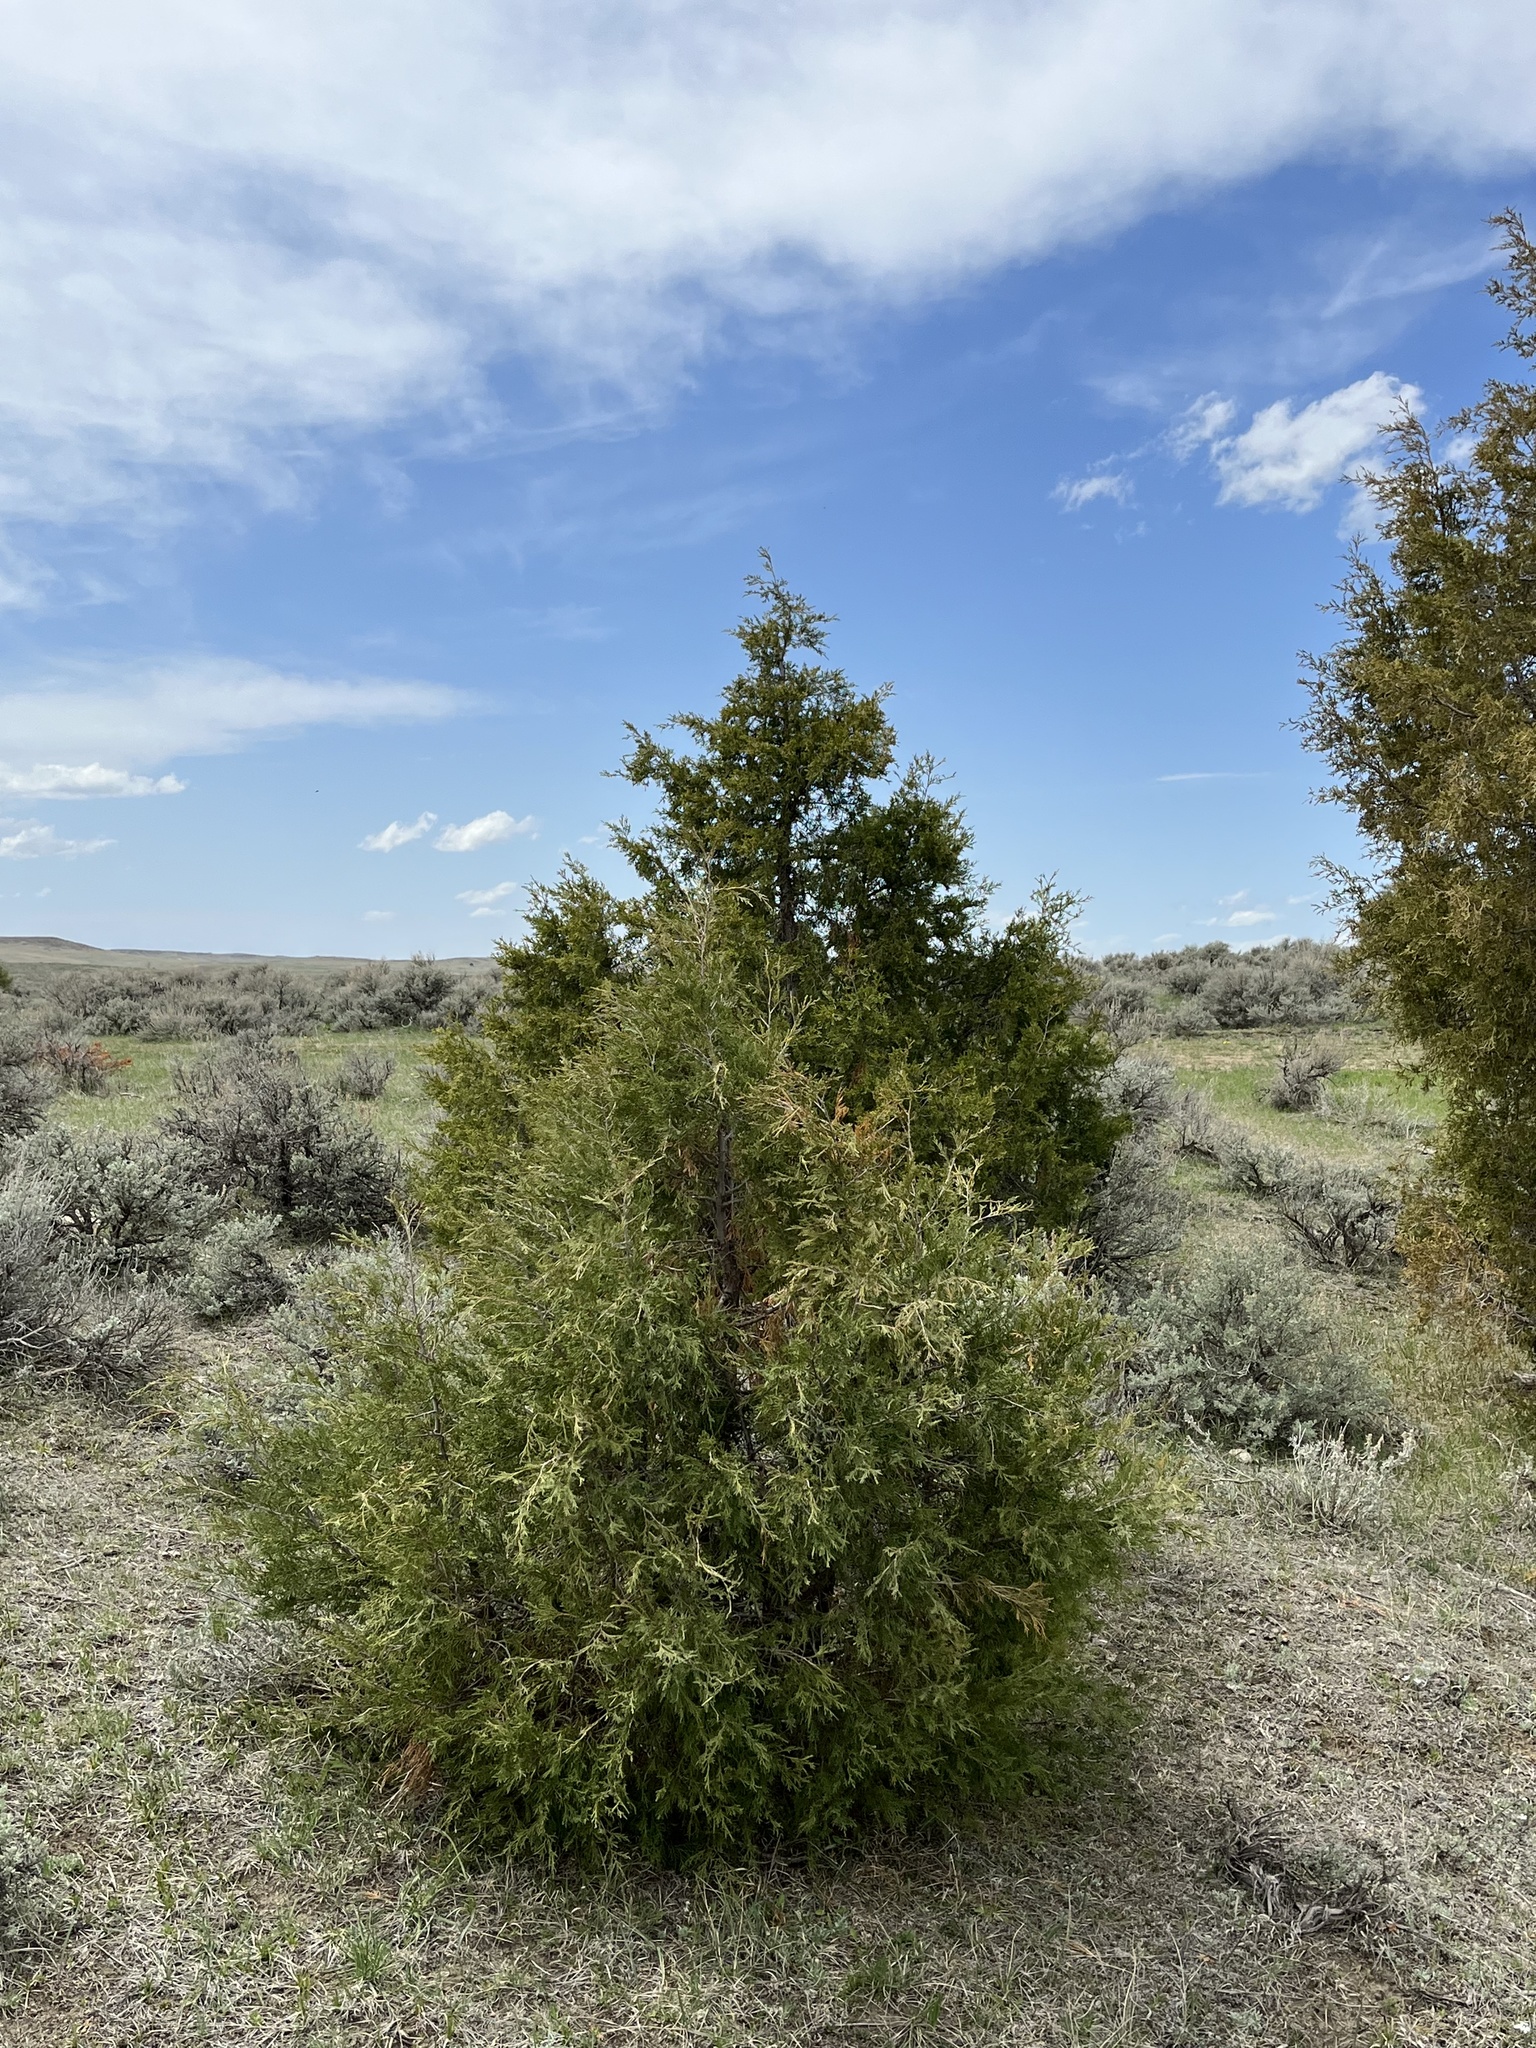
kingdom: Plantae
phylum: Tracheophyta
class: Pinopsida
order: Pinales
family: Cupressaceae
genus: Juniperus
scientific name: Juniperus scopulorum
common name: Rocky mountain juniper
